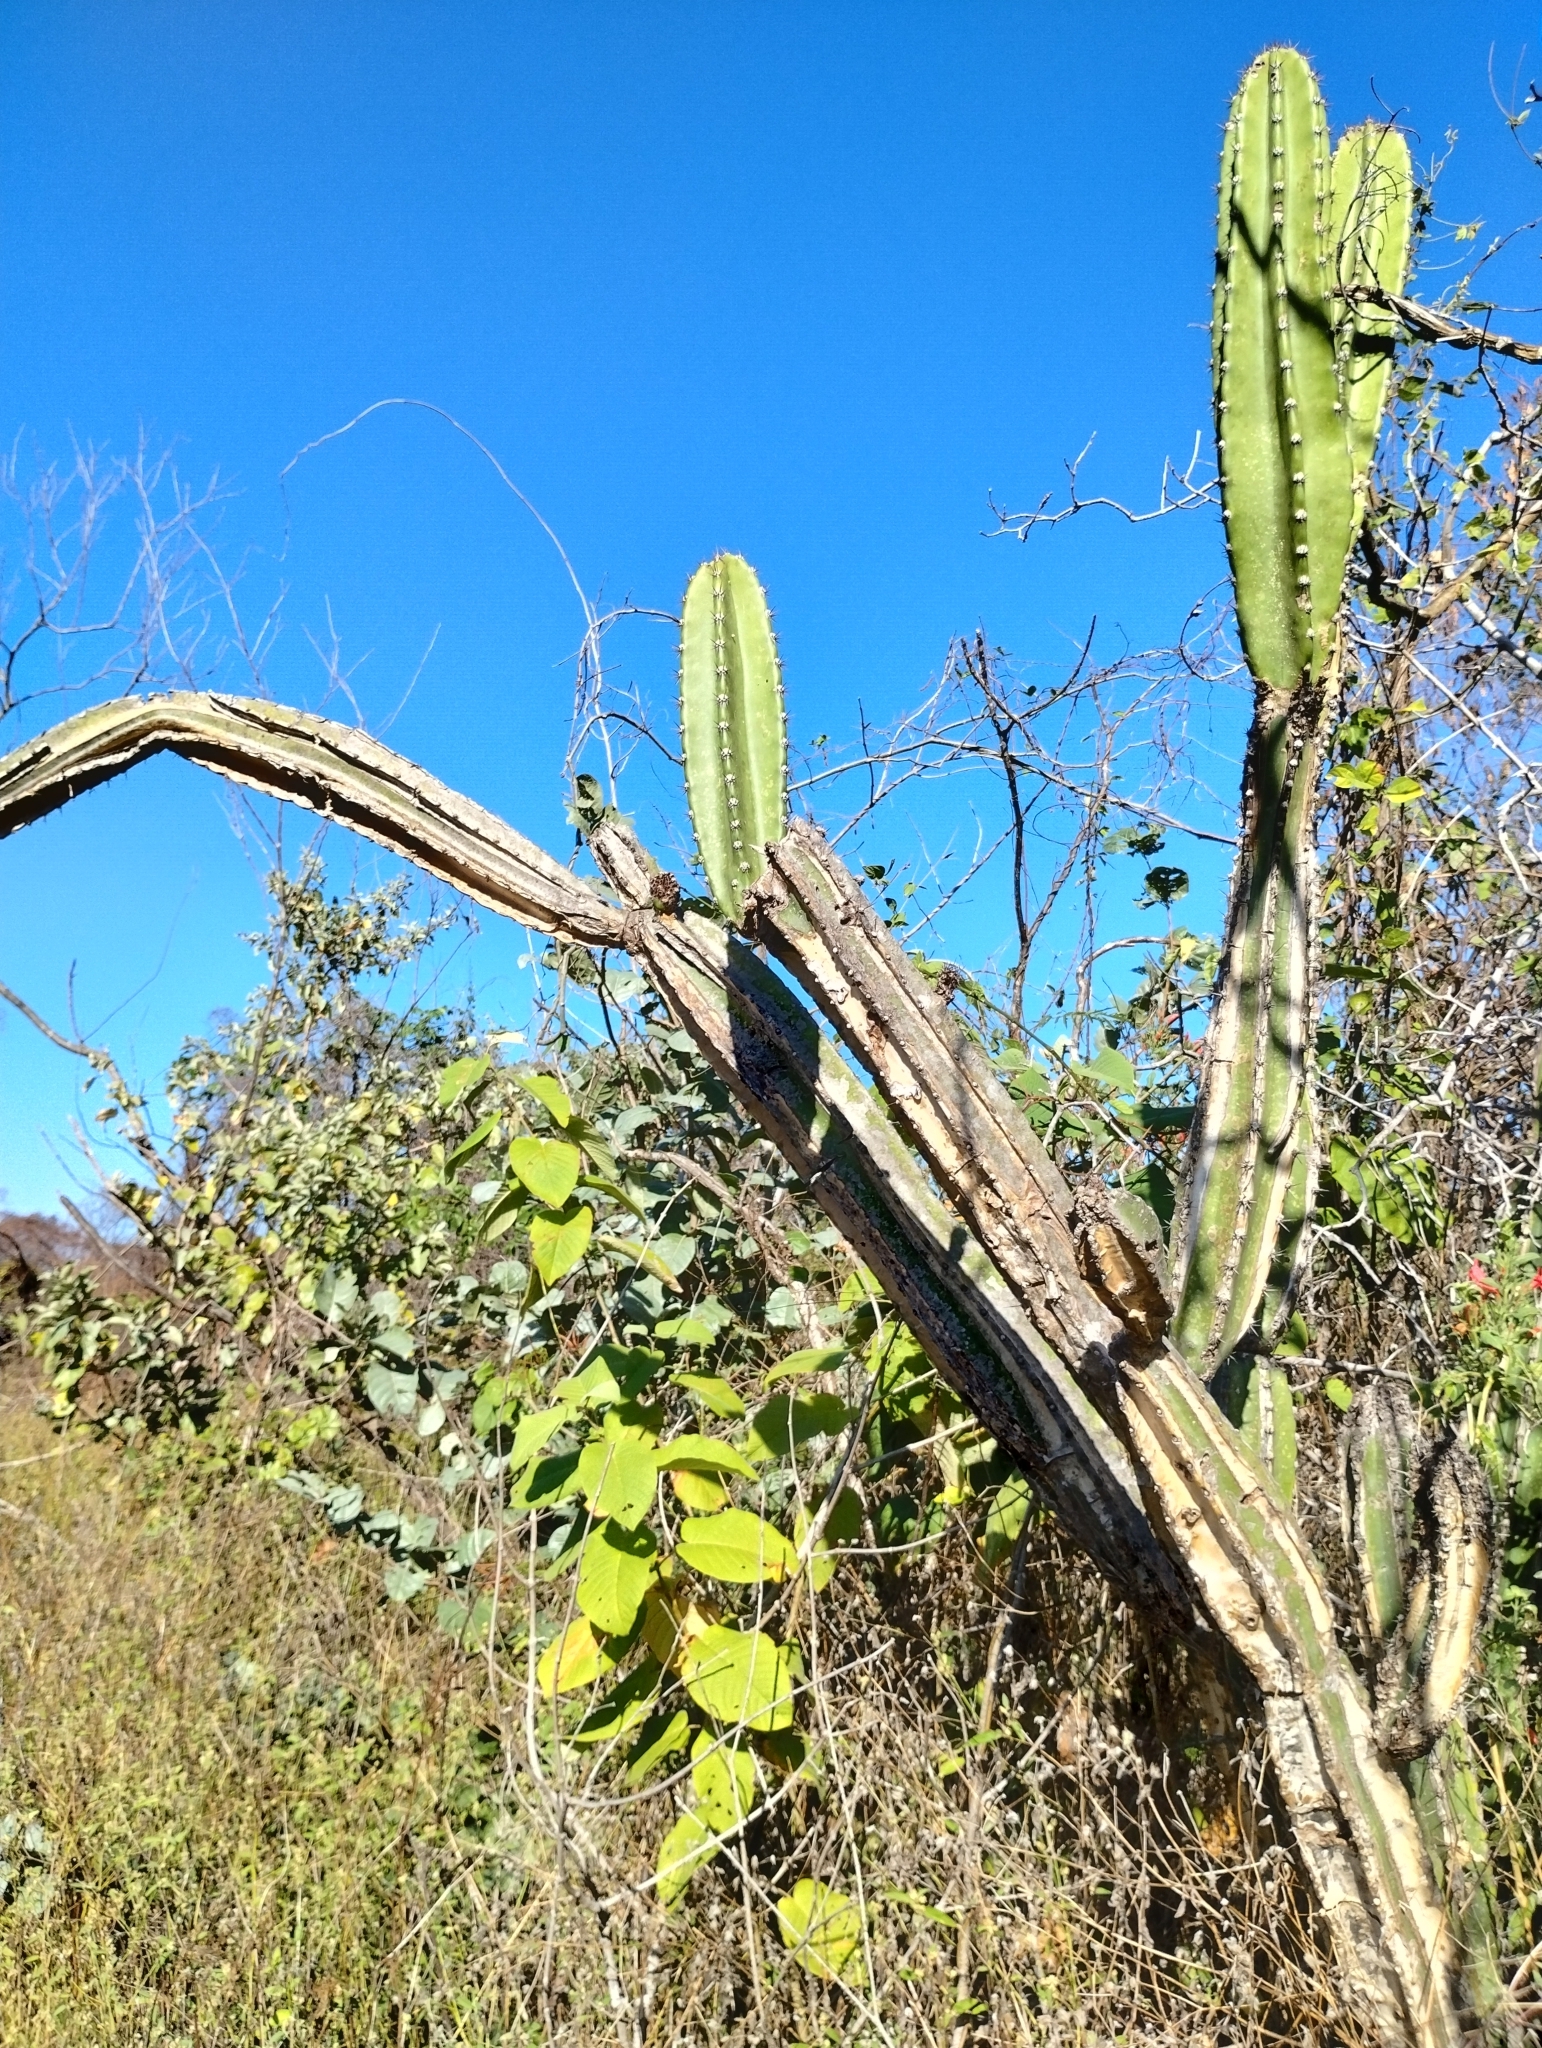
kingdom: Plantae
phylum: Tracheophyta
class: Magnoliopsida
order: Caryophyllales
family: Cactaceae
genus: Cereus
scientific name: Cereus jamacaru
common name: Queen-of-the-night
